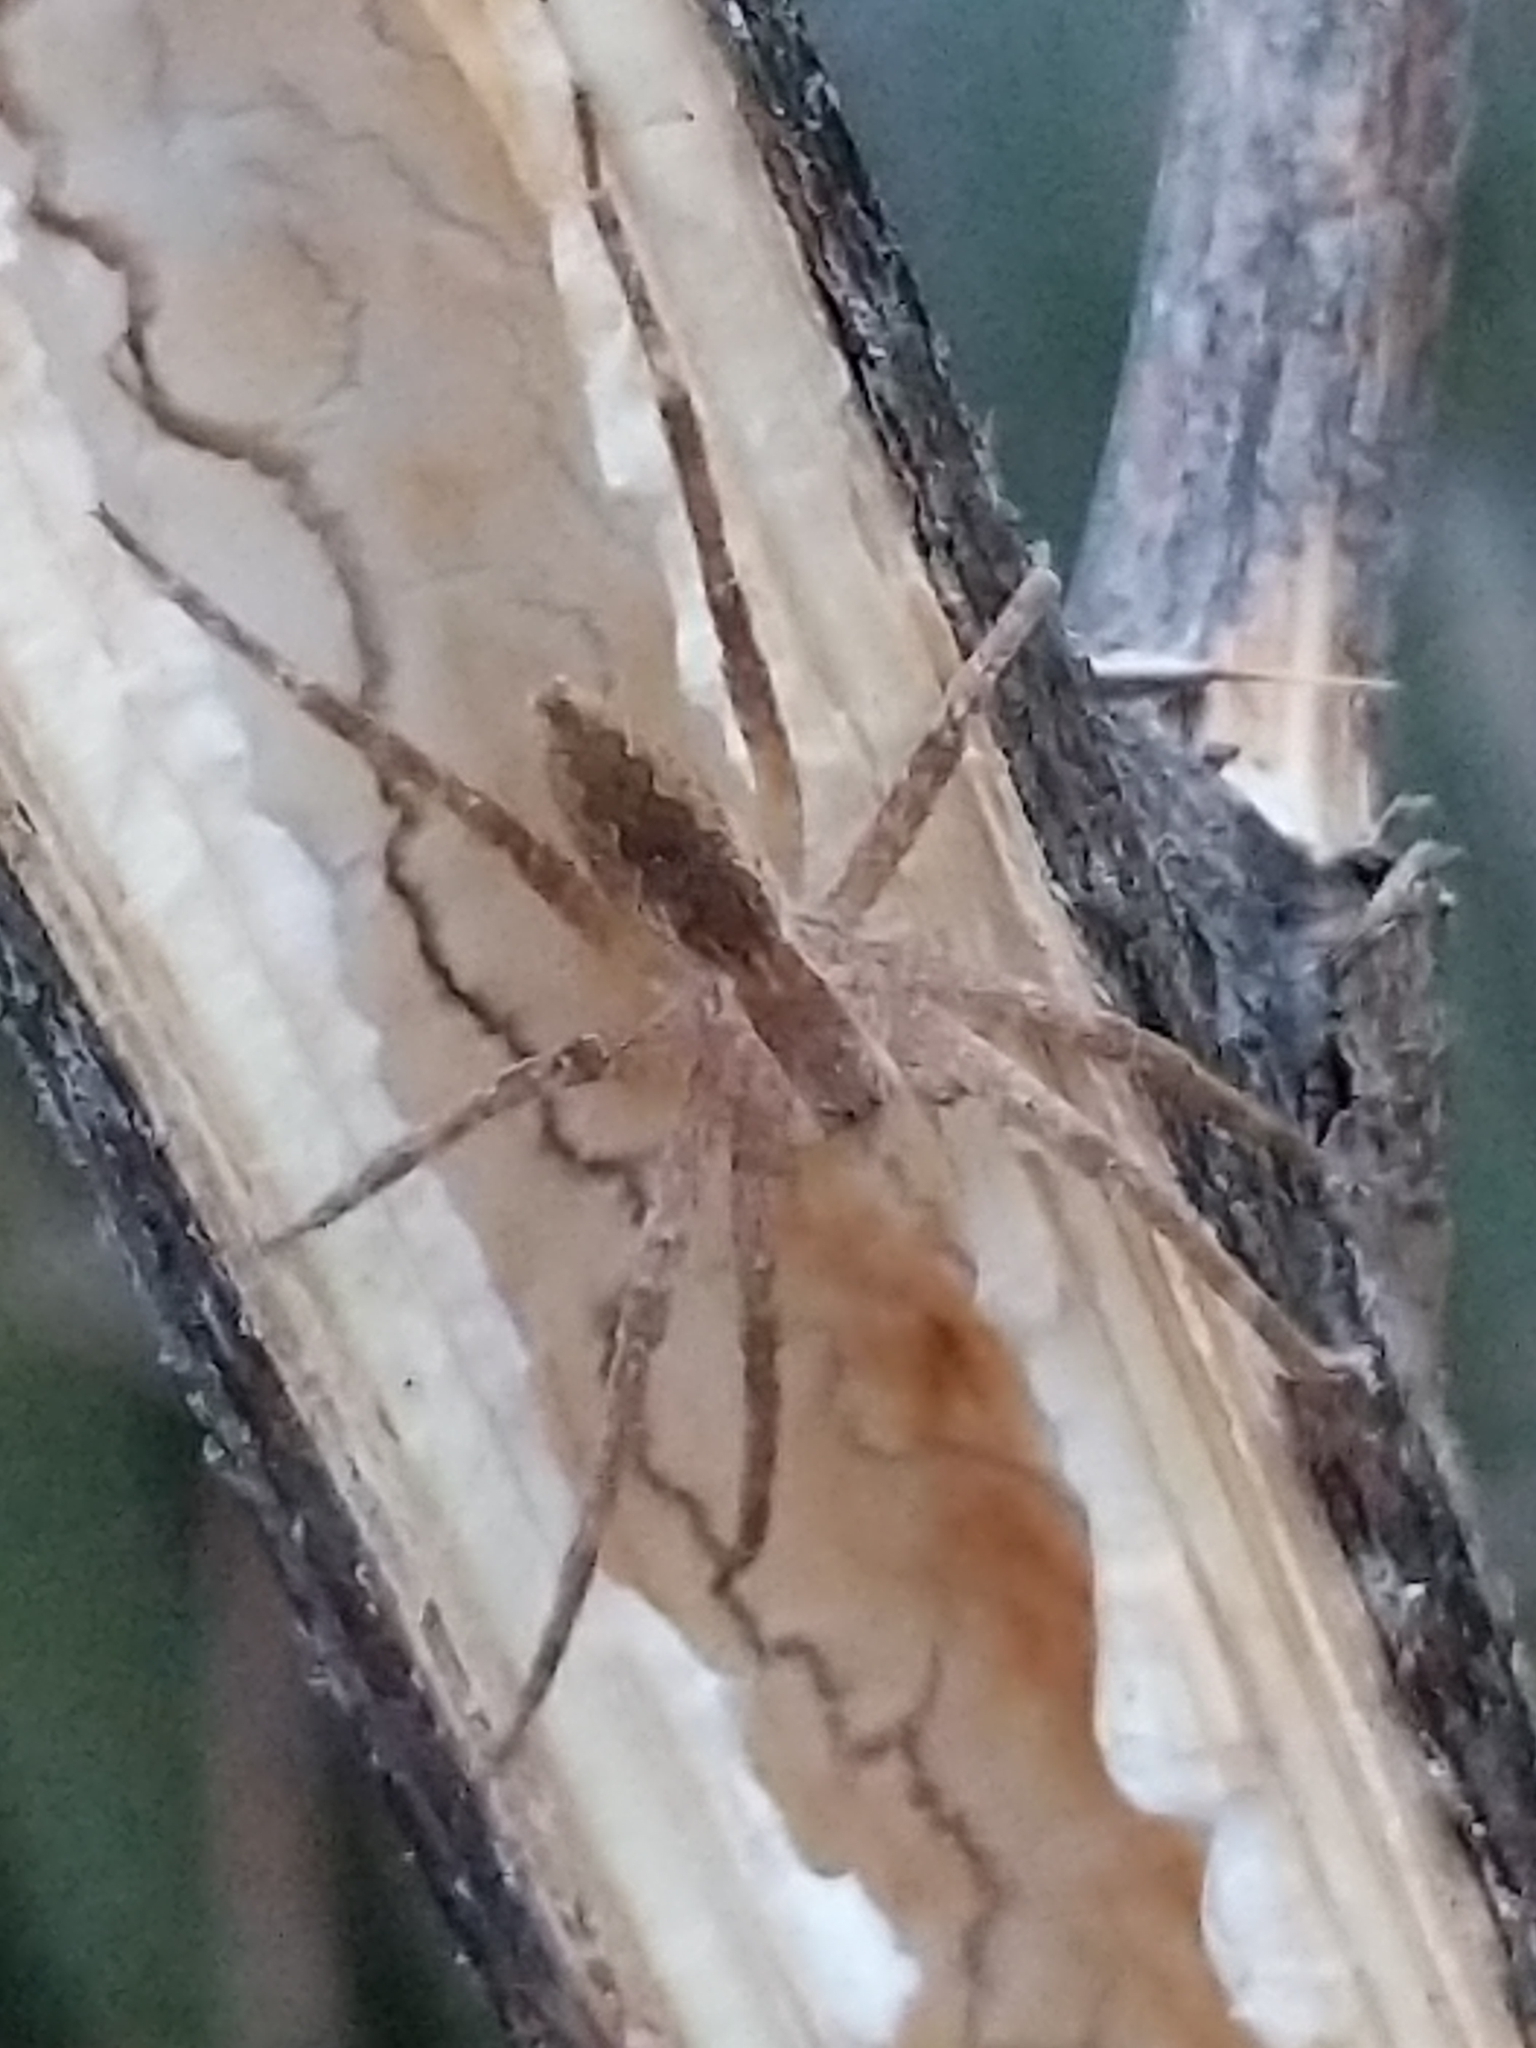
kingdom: Animalia
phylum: Arthropoda
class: Arachnida
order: Araneae
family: Pisauridae
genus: Pisaurina
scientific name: Pisaurina mira
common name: American nursery web spider
